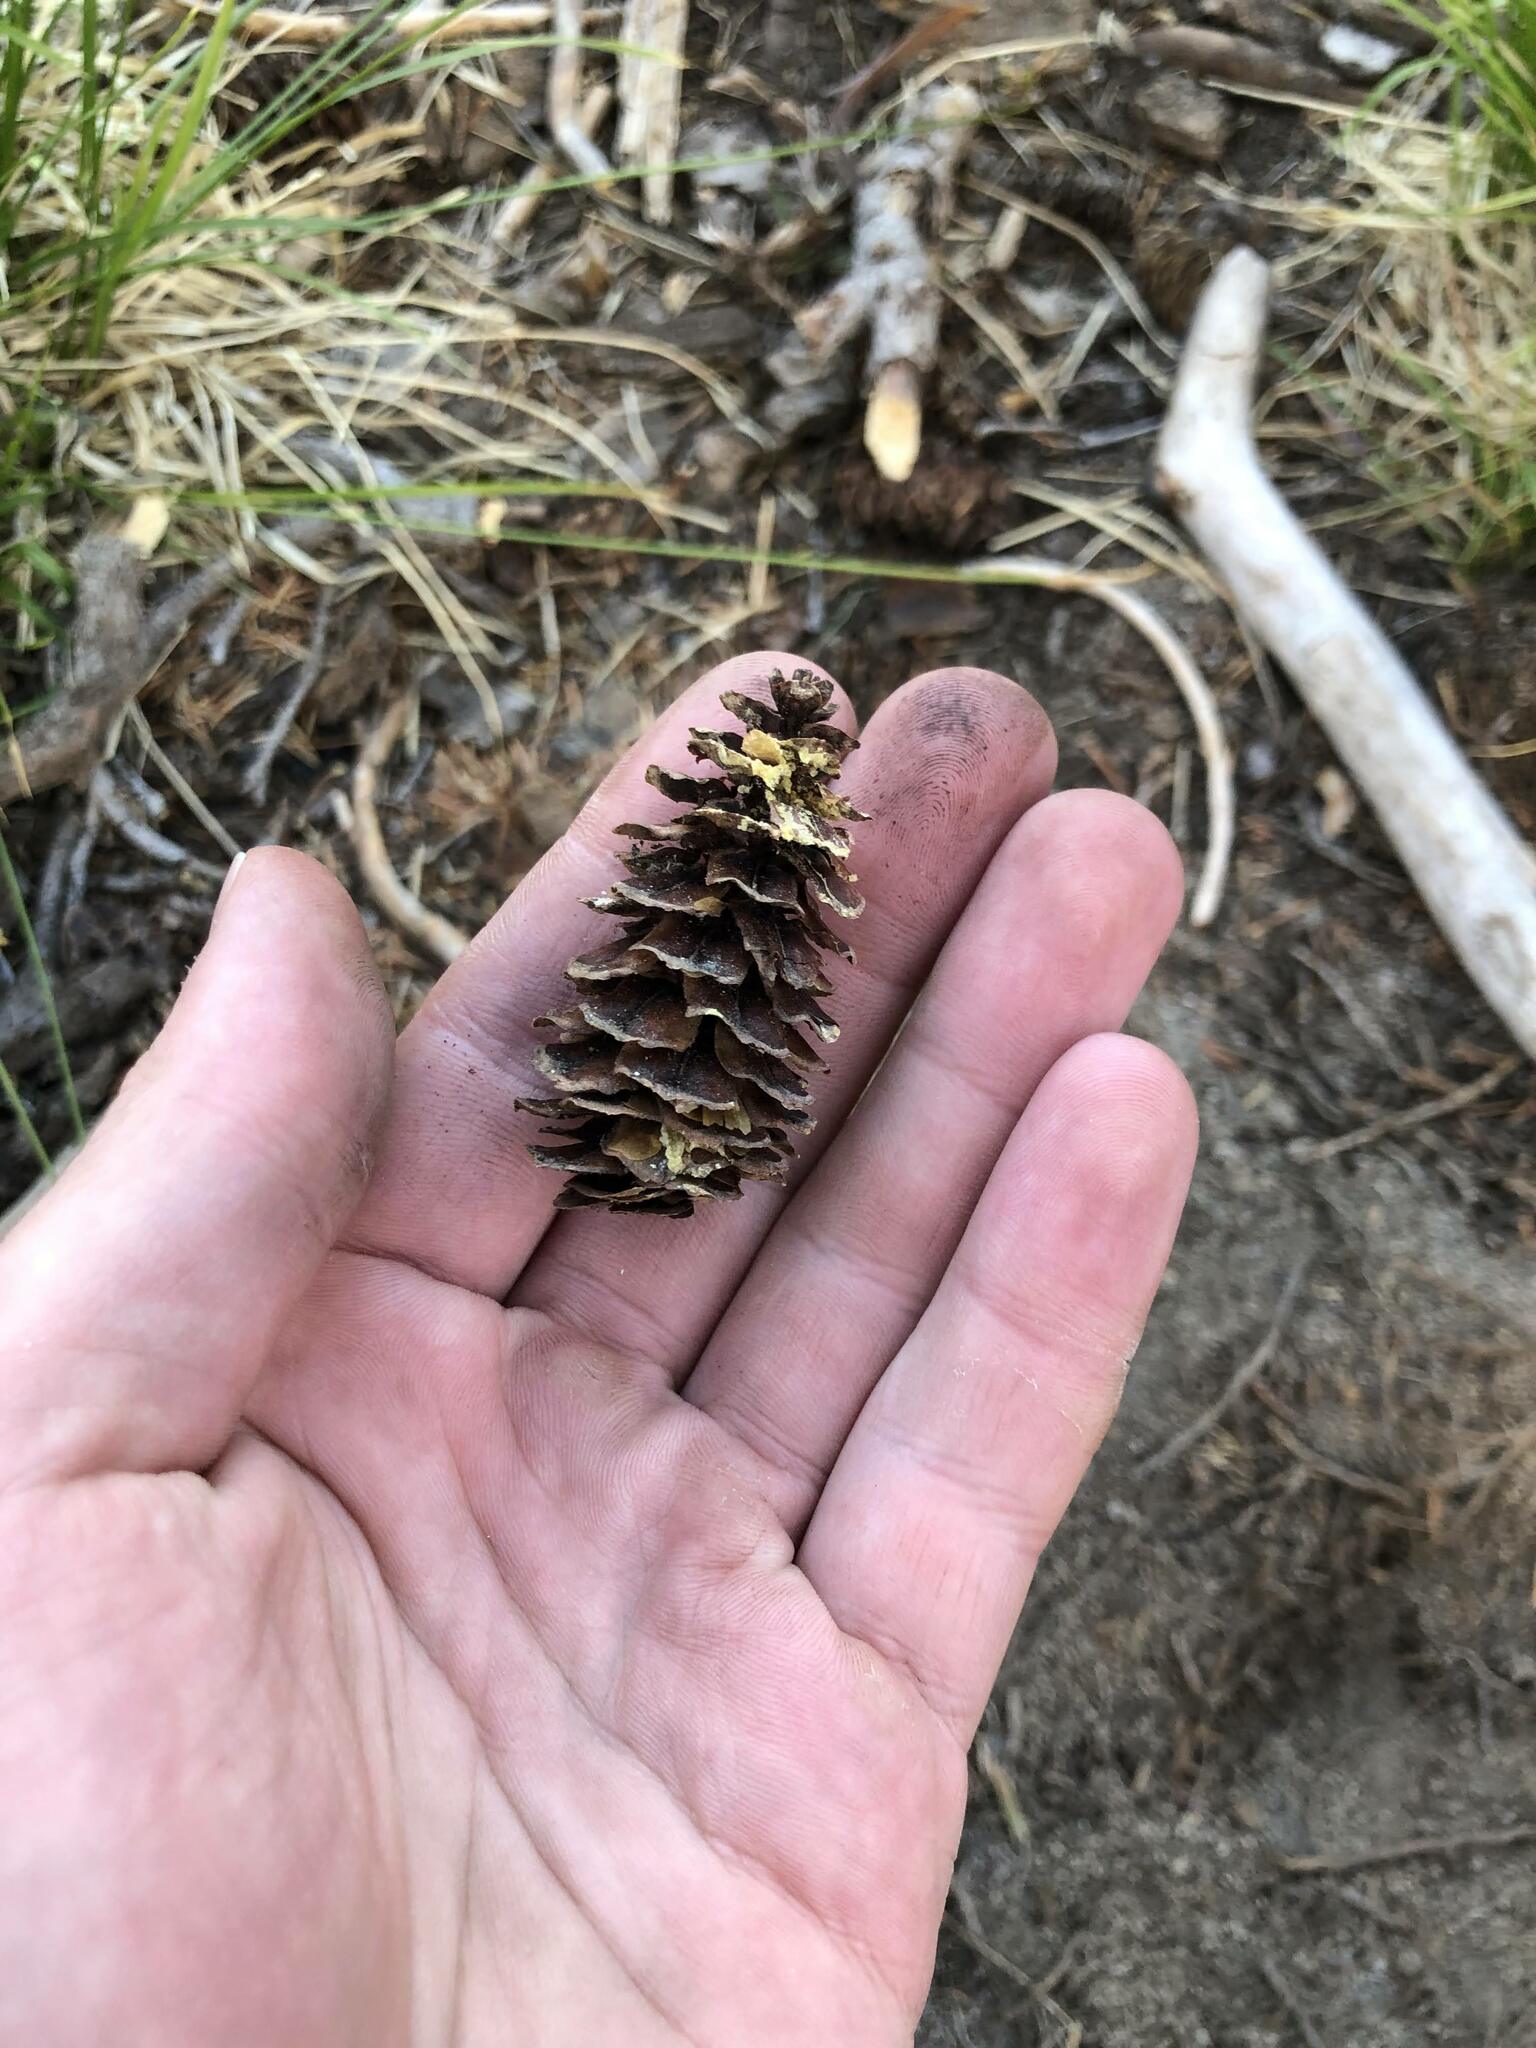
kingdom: Plantae
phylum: Tracheophyta
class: Pinopsida
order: Pinales
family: Pinaceae
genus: Tsuga
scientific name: Tsuga mertensiana
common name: Mountain hemlock
